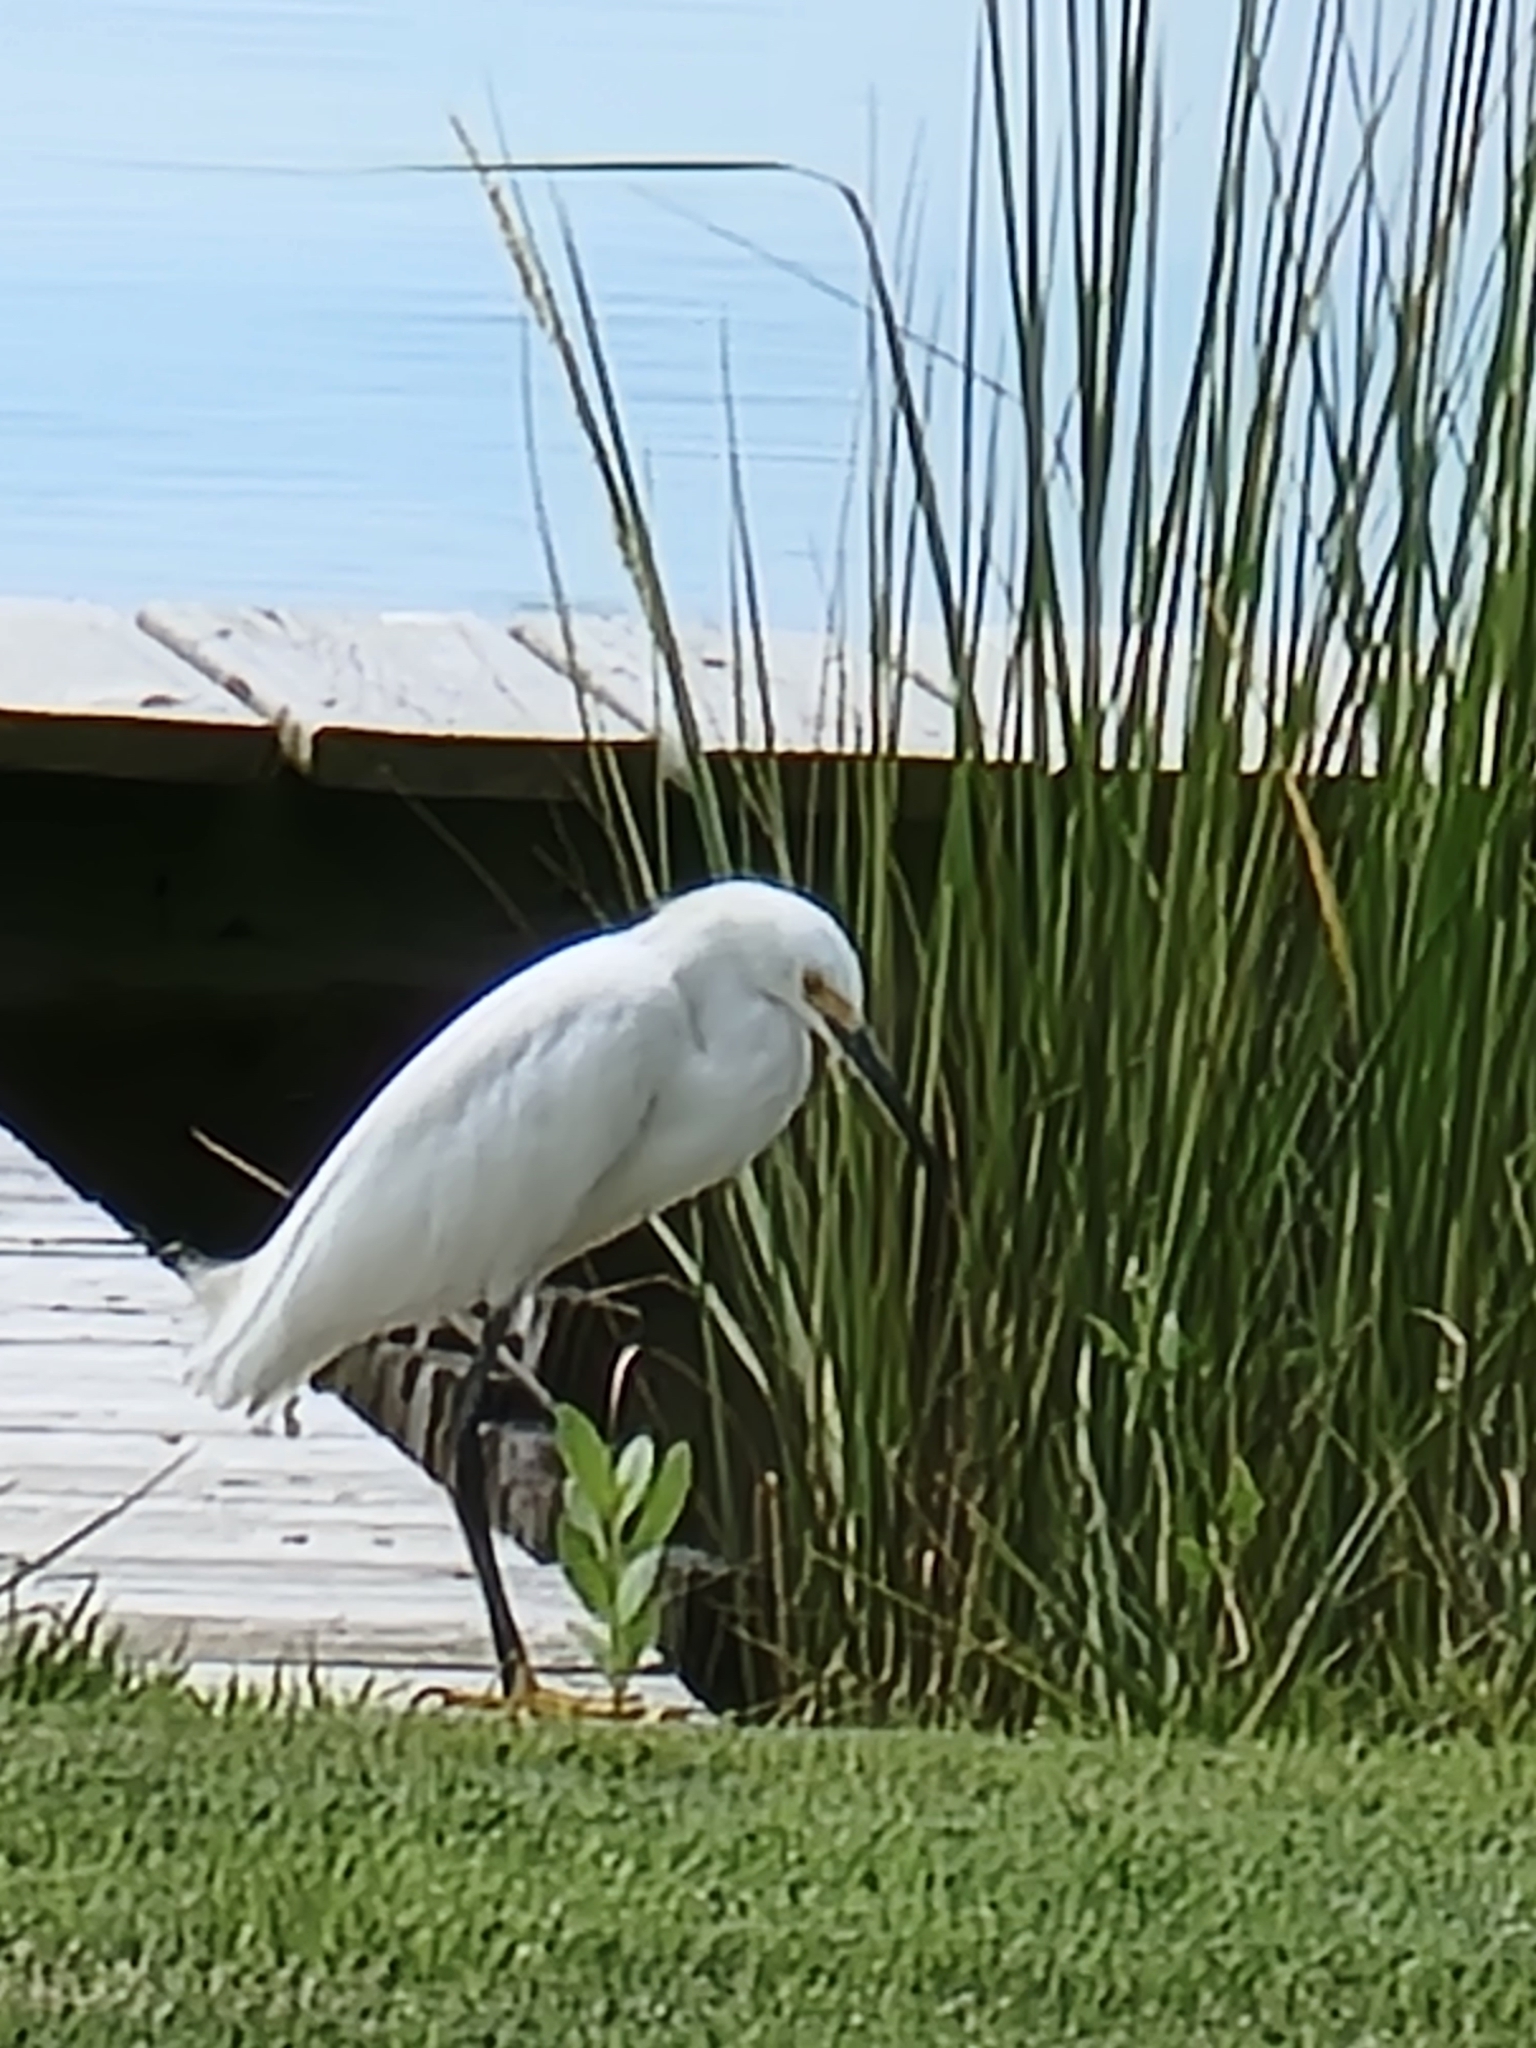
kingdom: Animalia
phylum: Chordata
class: Aves
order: Pelecaniformes
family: Ardeidae
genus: Egretta
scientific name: Egretta thula
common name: Snowy egret
